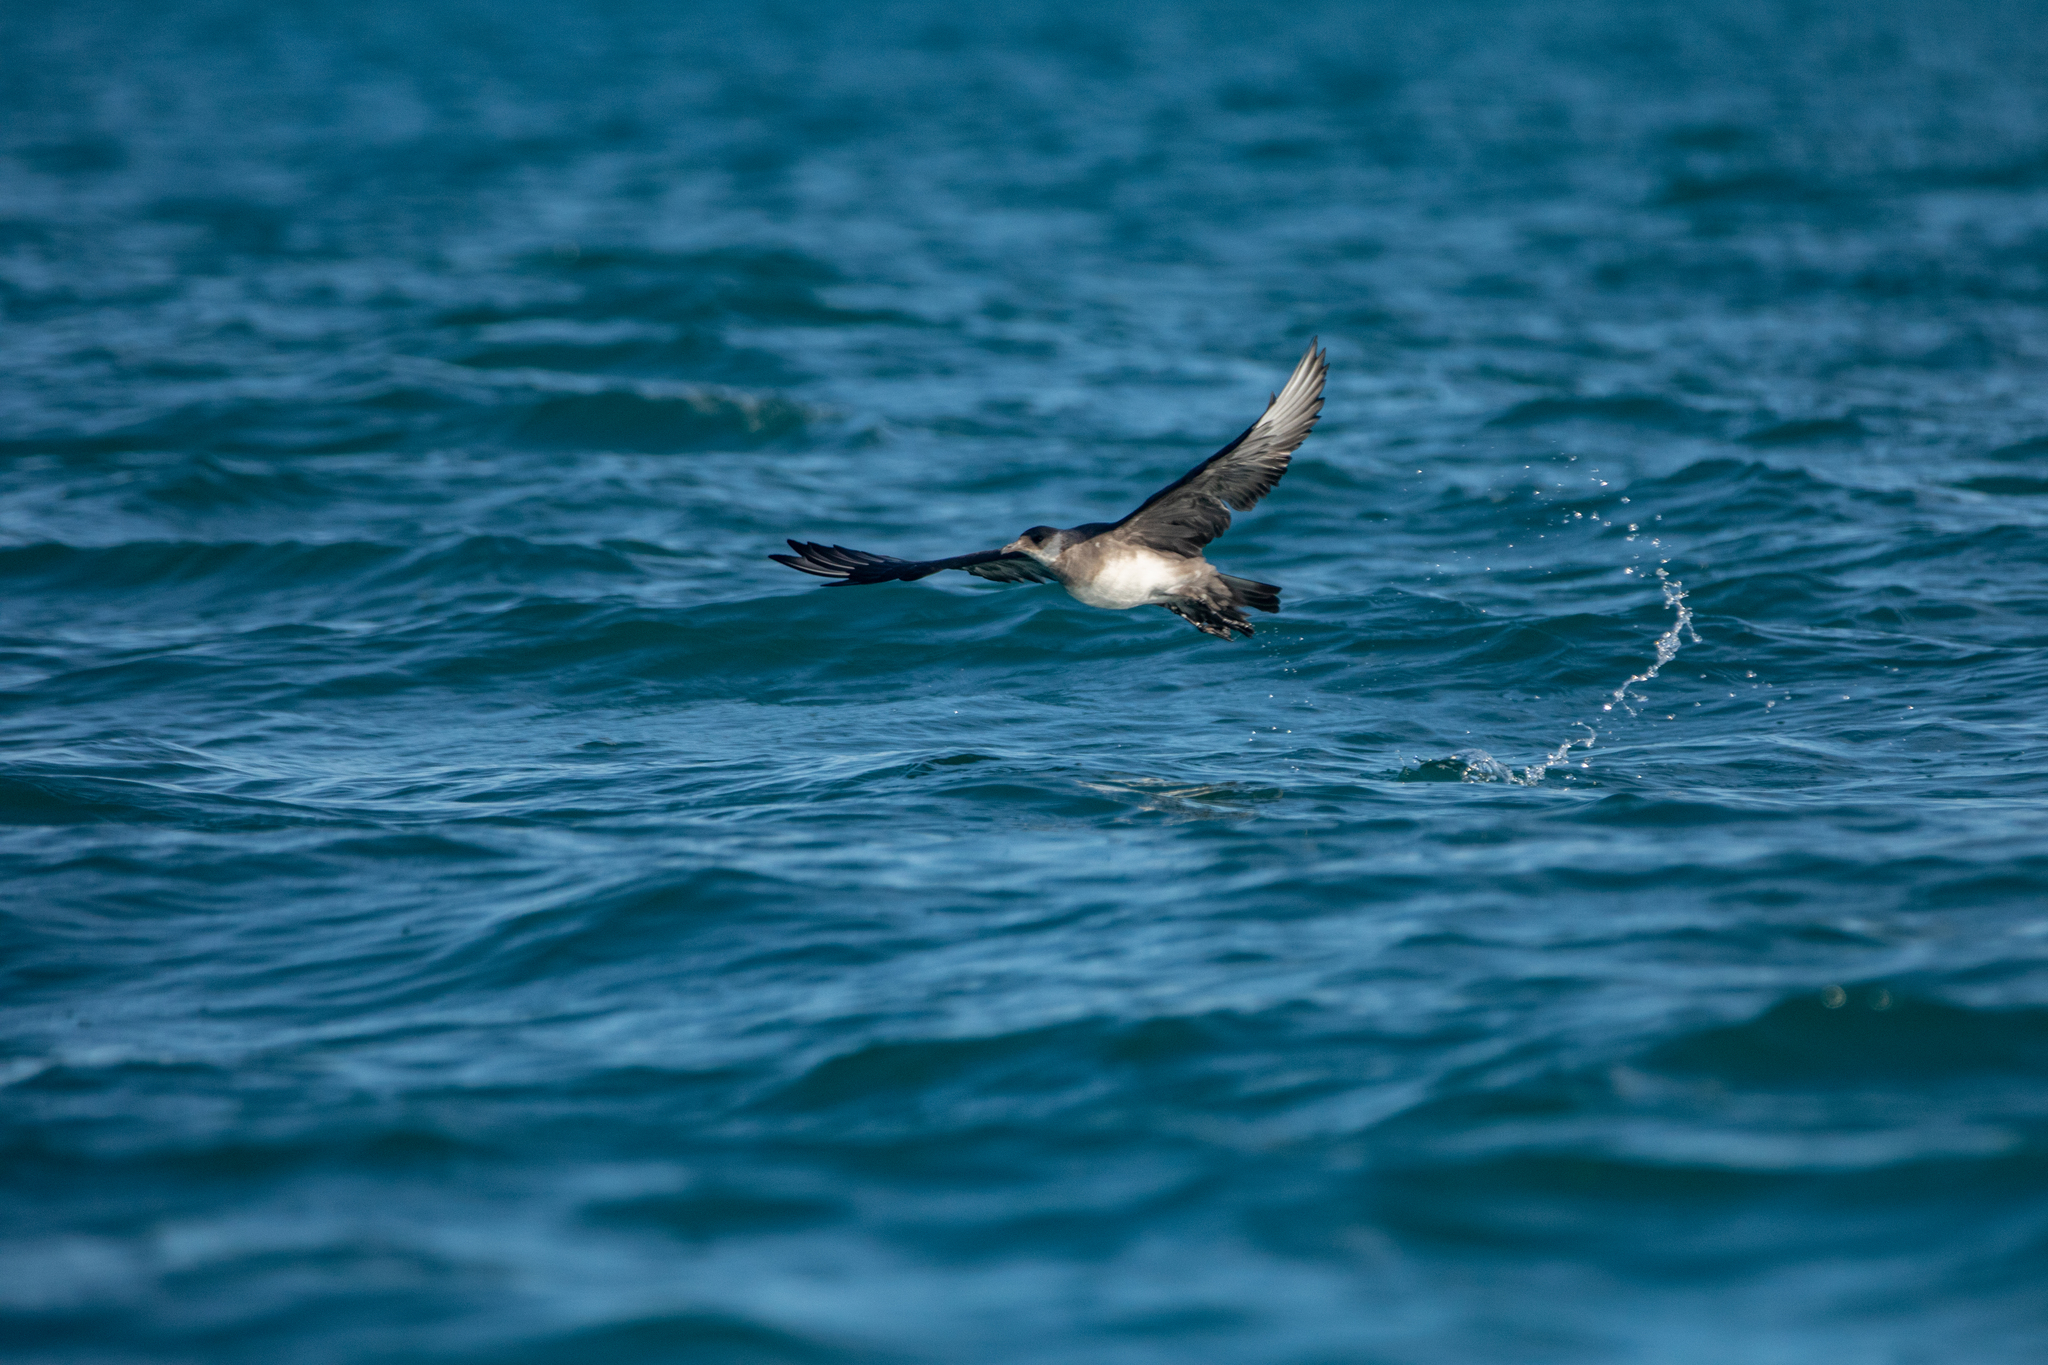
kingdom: Animalia
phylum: Chordata
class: Aves
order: Charadriiformes
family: Stercorariidae
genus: Stercorarius
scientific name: Stercorarius parasiticus
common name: Parasitic jaeger
